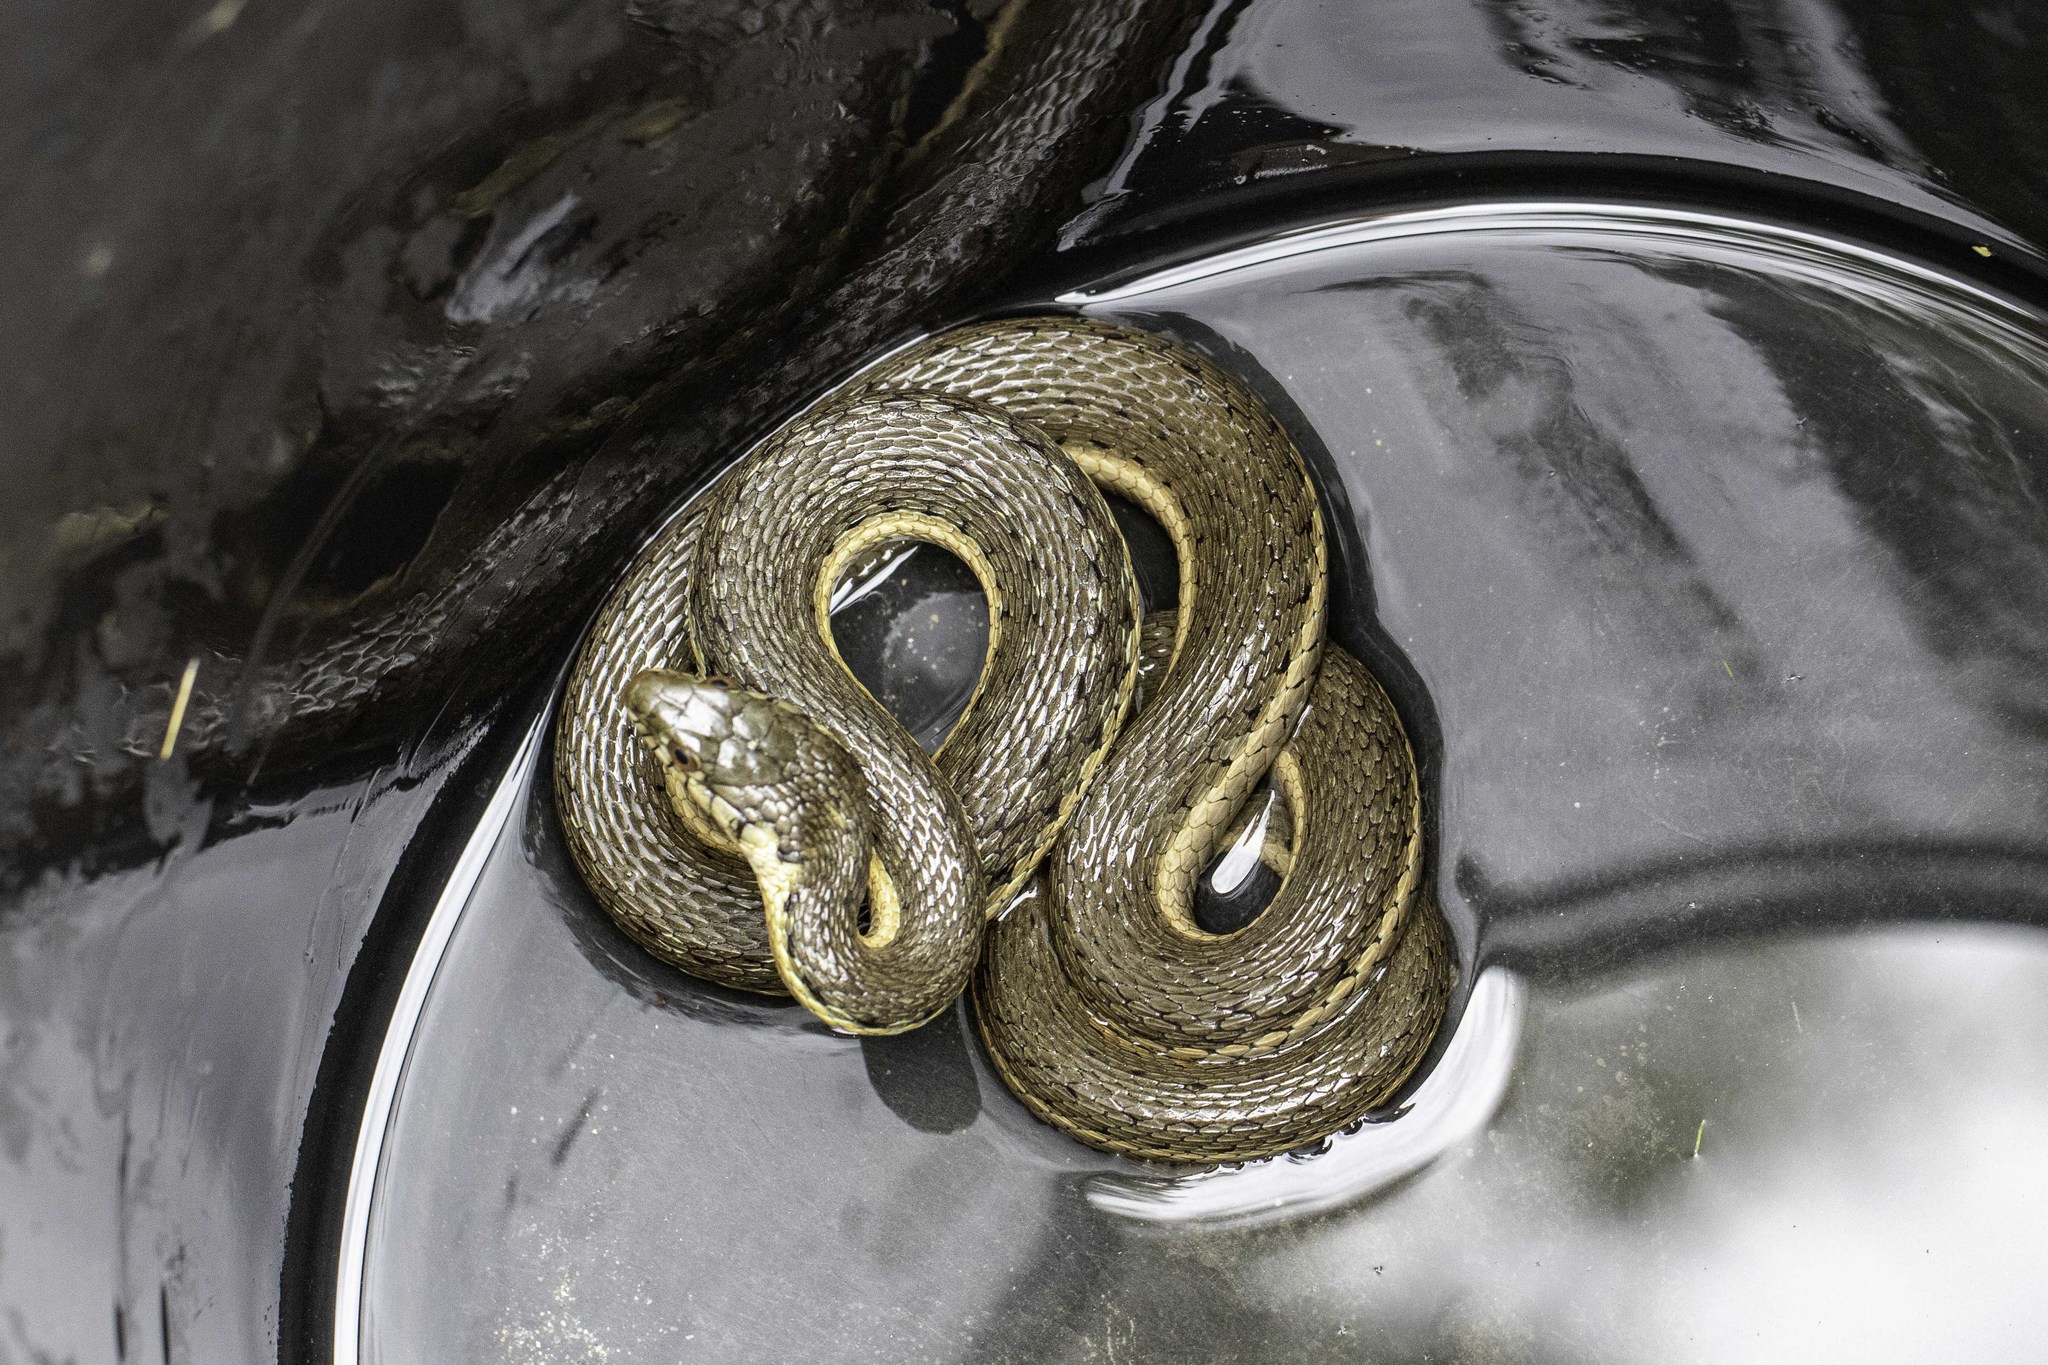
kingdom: Animalia
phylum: Chordata
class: Squamata
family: Colubridae
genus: Thamnophis
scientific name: Thamnophis hammondii
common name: Two-striped garter snake
